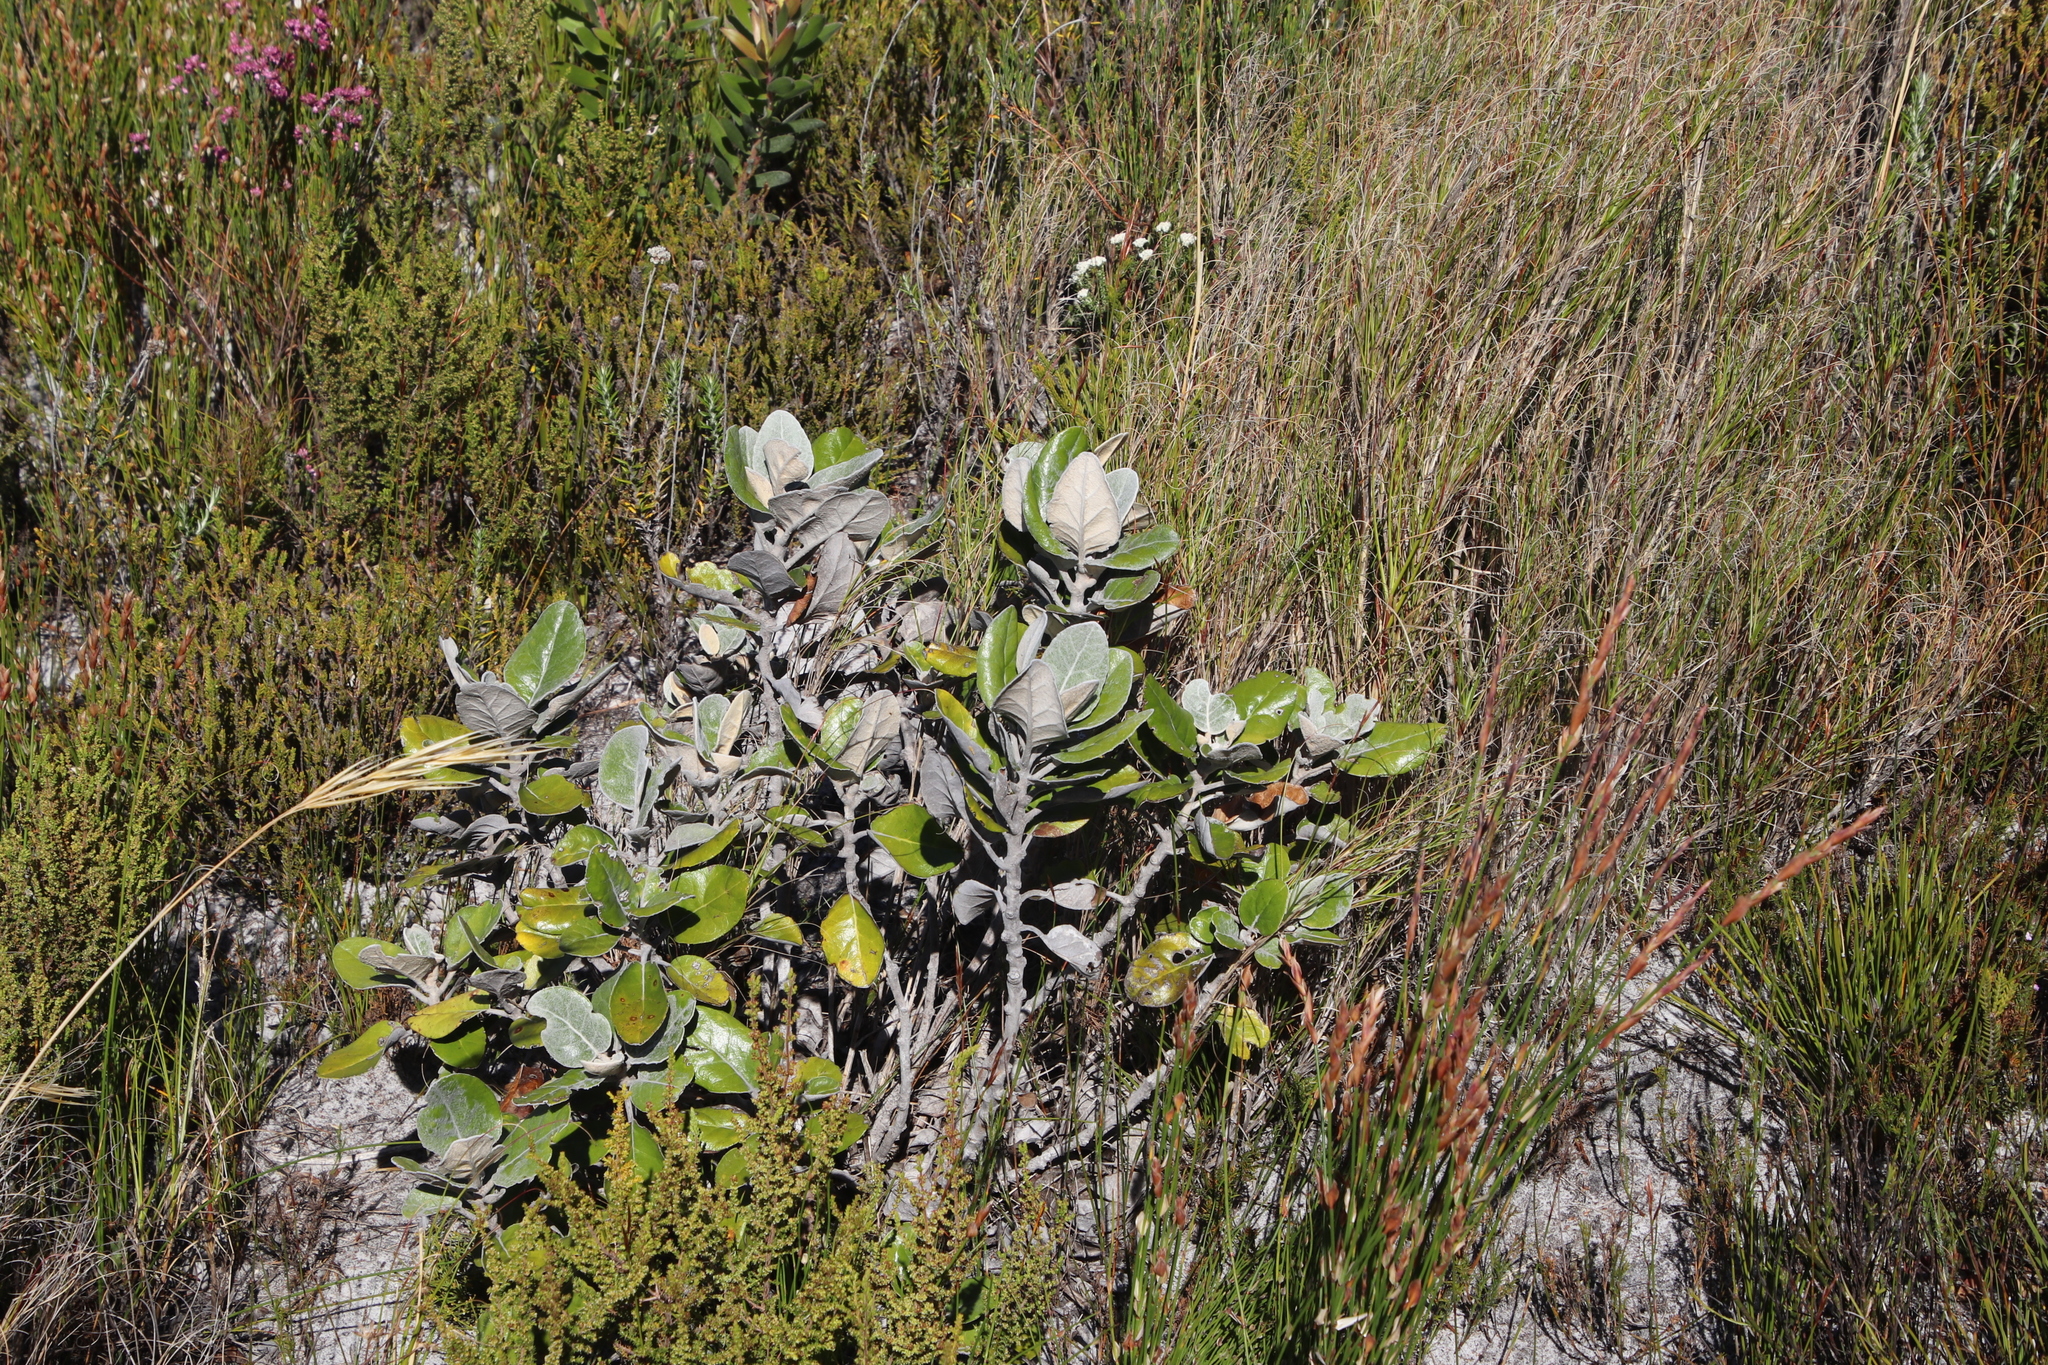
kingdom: Plantae
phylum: Tracheophyta
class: Magnoliopsida
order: Asterales
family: Asteraceae
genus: Capelio
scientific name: Capelio tabularis
